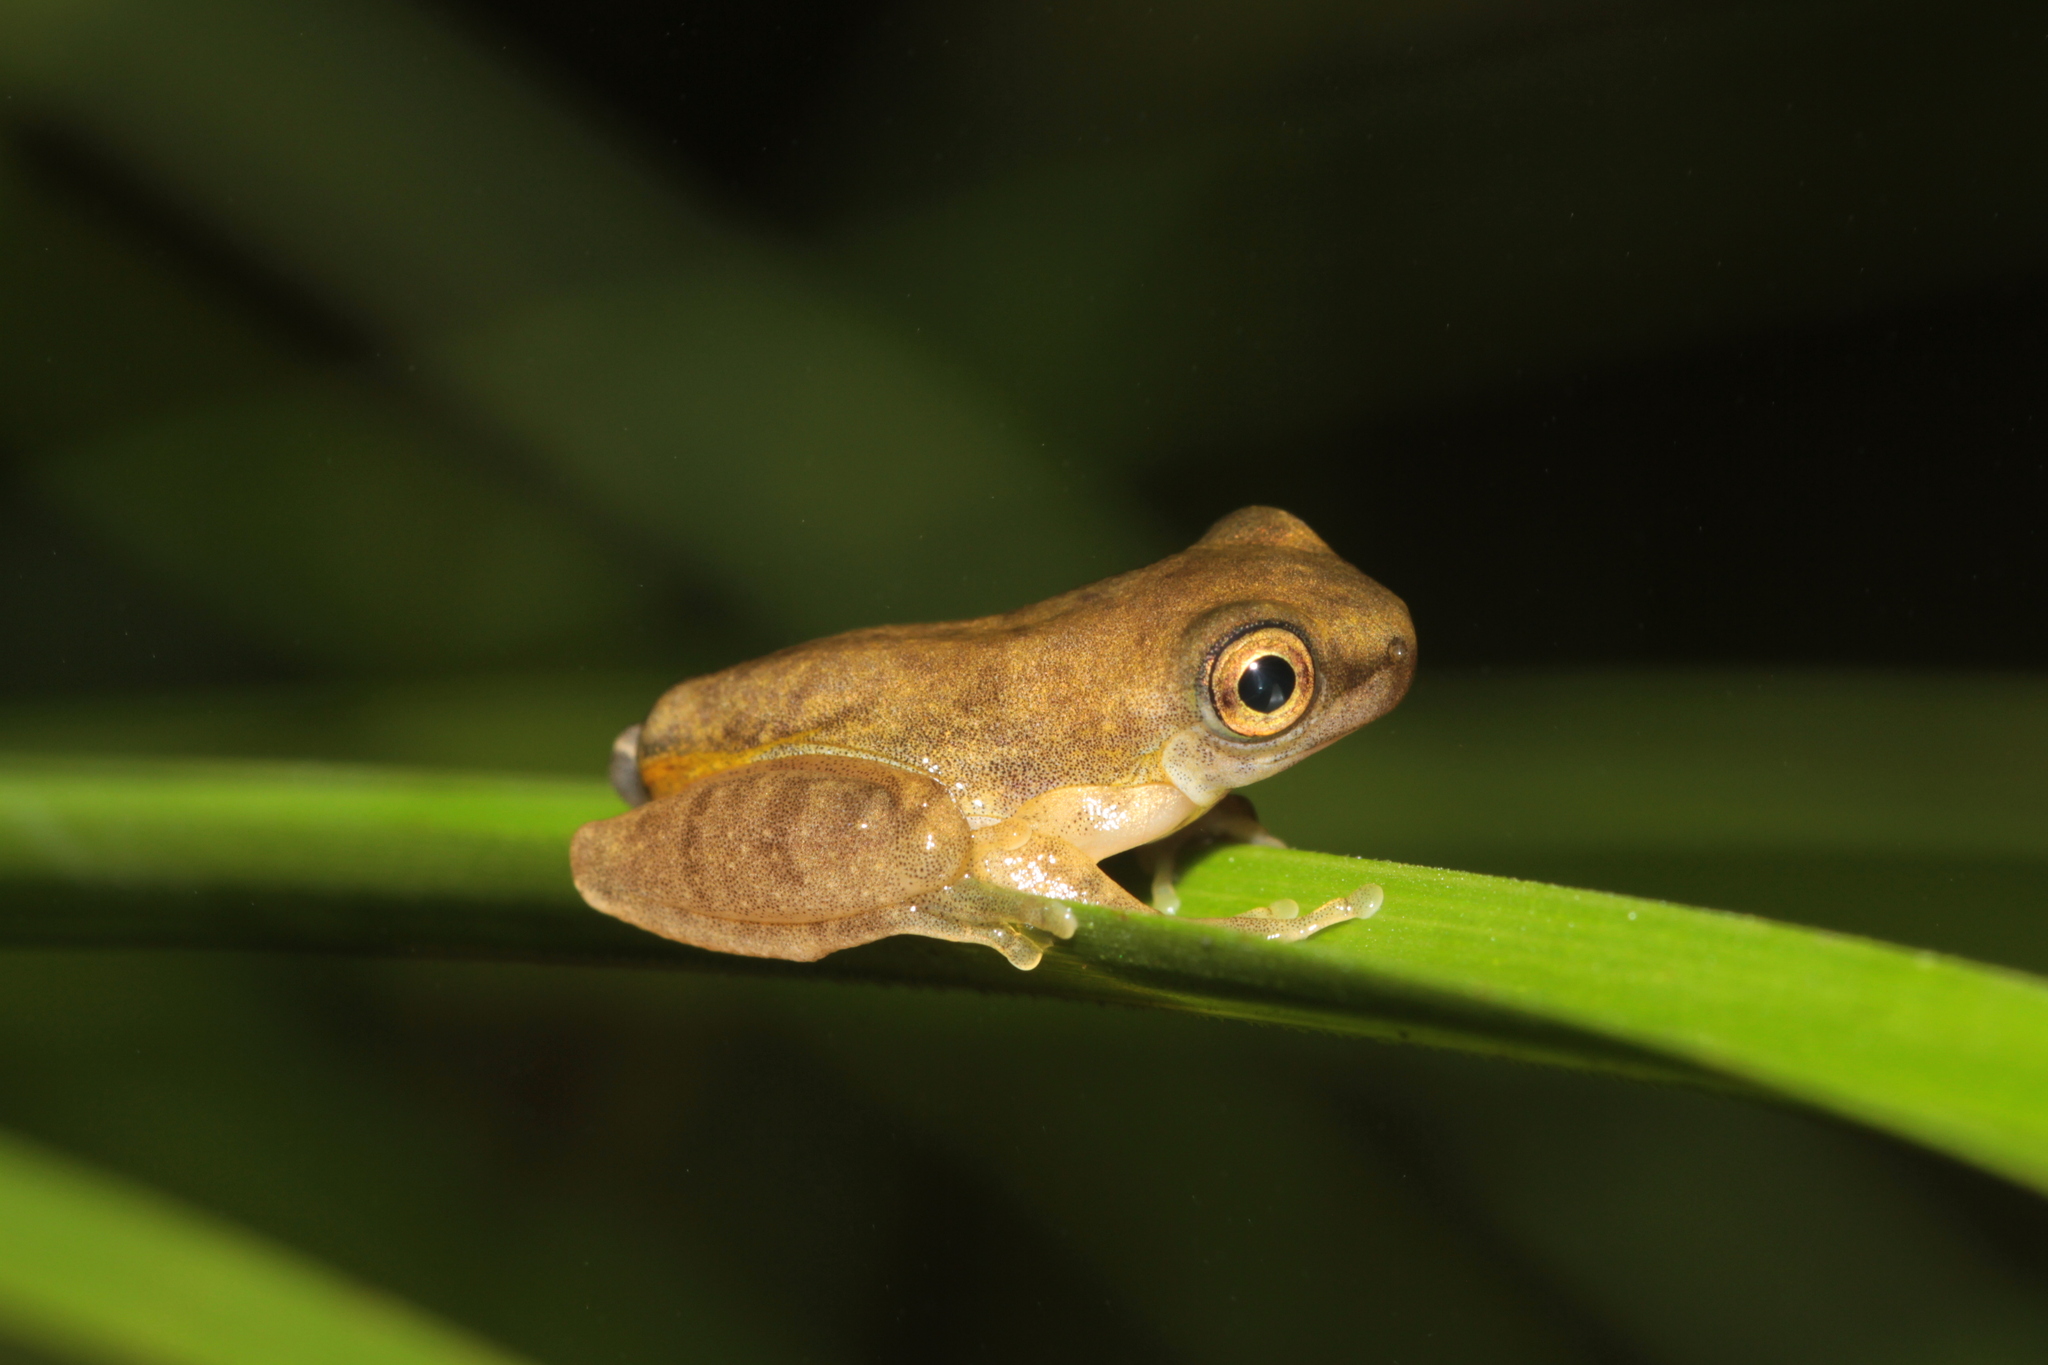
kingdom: Animalia
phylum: Chordata
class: Amphibia
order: Anura
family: Hylidae
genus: Dendropsophus
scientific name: Dendropsophus minutus
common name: Lesser treefrog
